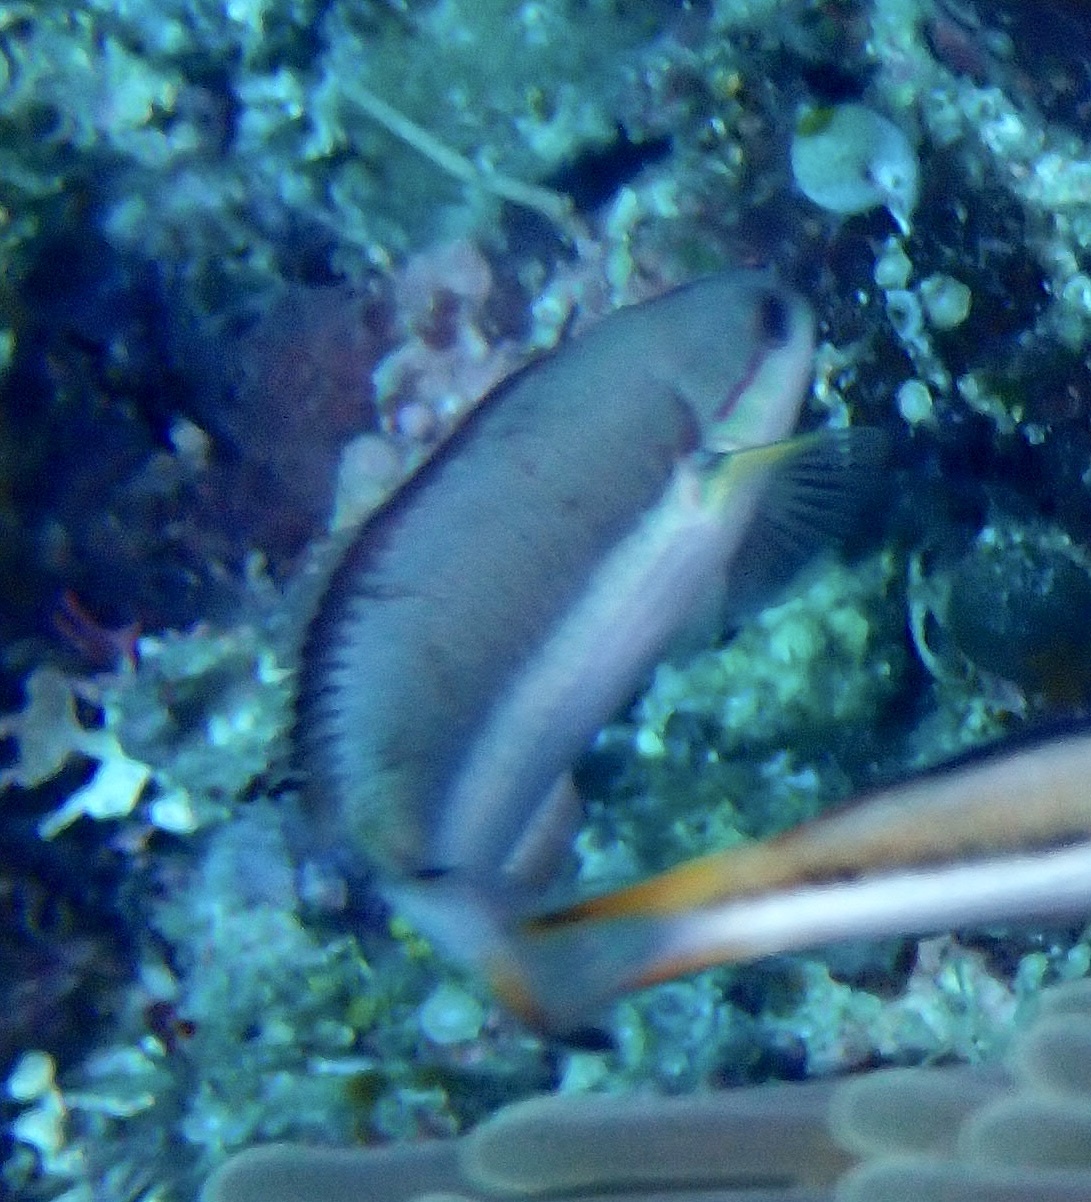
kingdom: Animalia
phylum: Chordata
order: Perciformes
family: Labridae
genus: Thalassoma
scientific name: Thalassoma amblycephalum
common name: Bluehead wrasse
